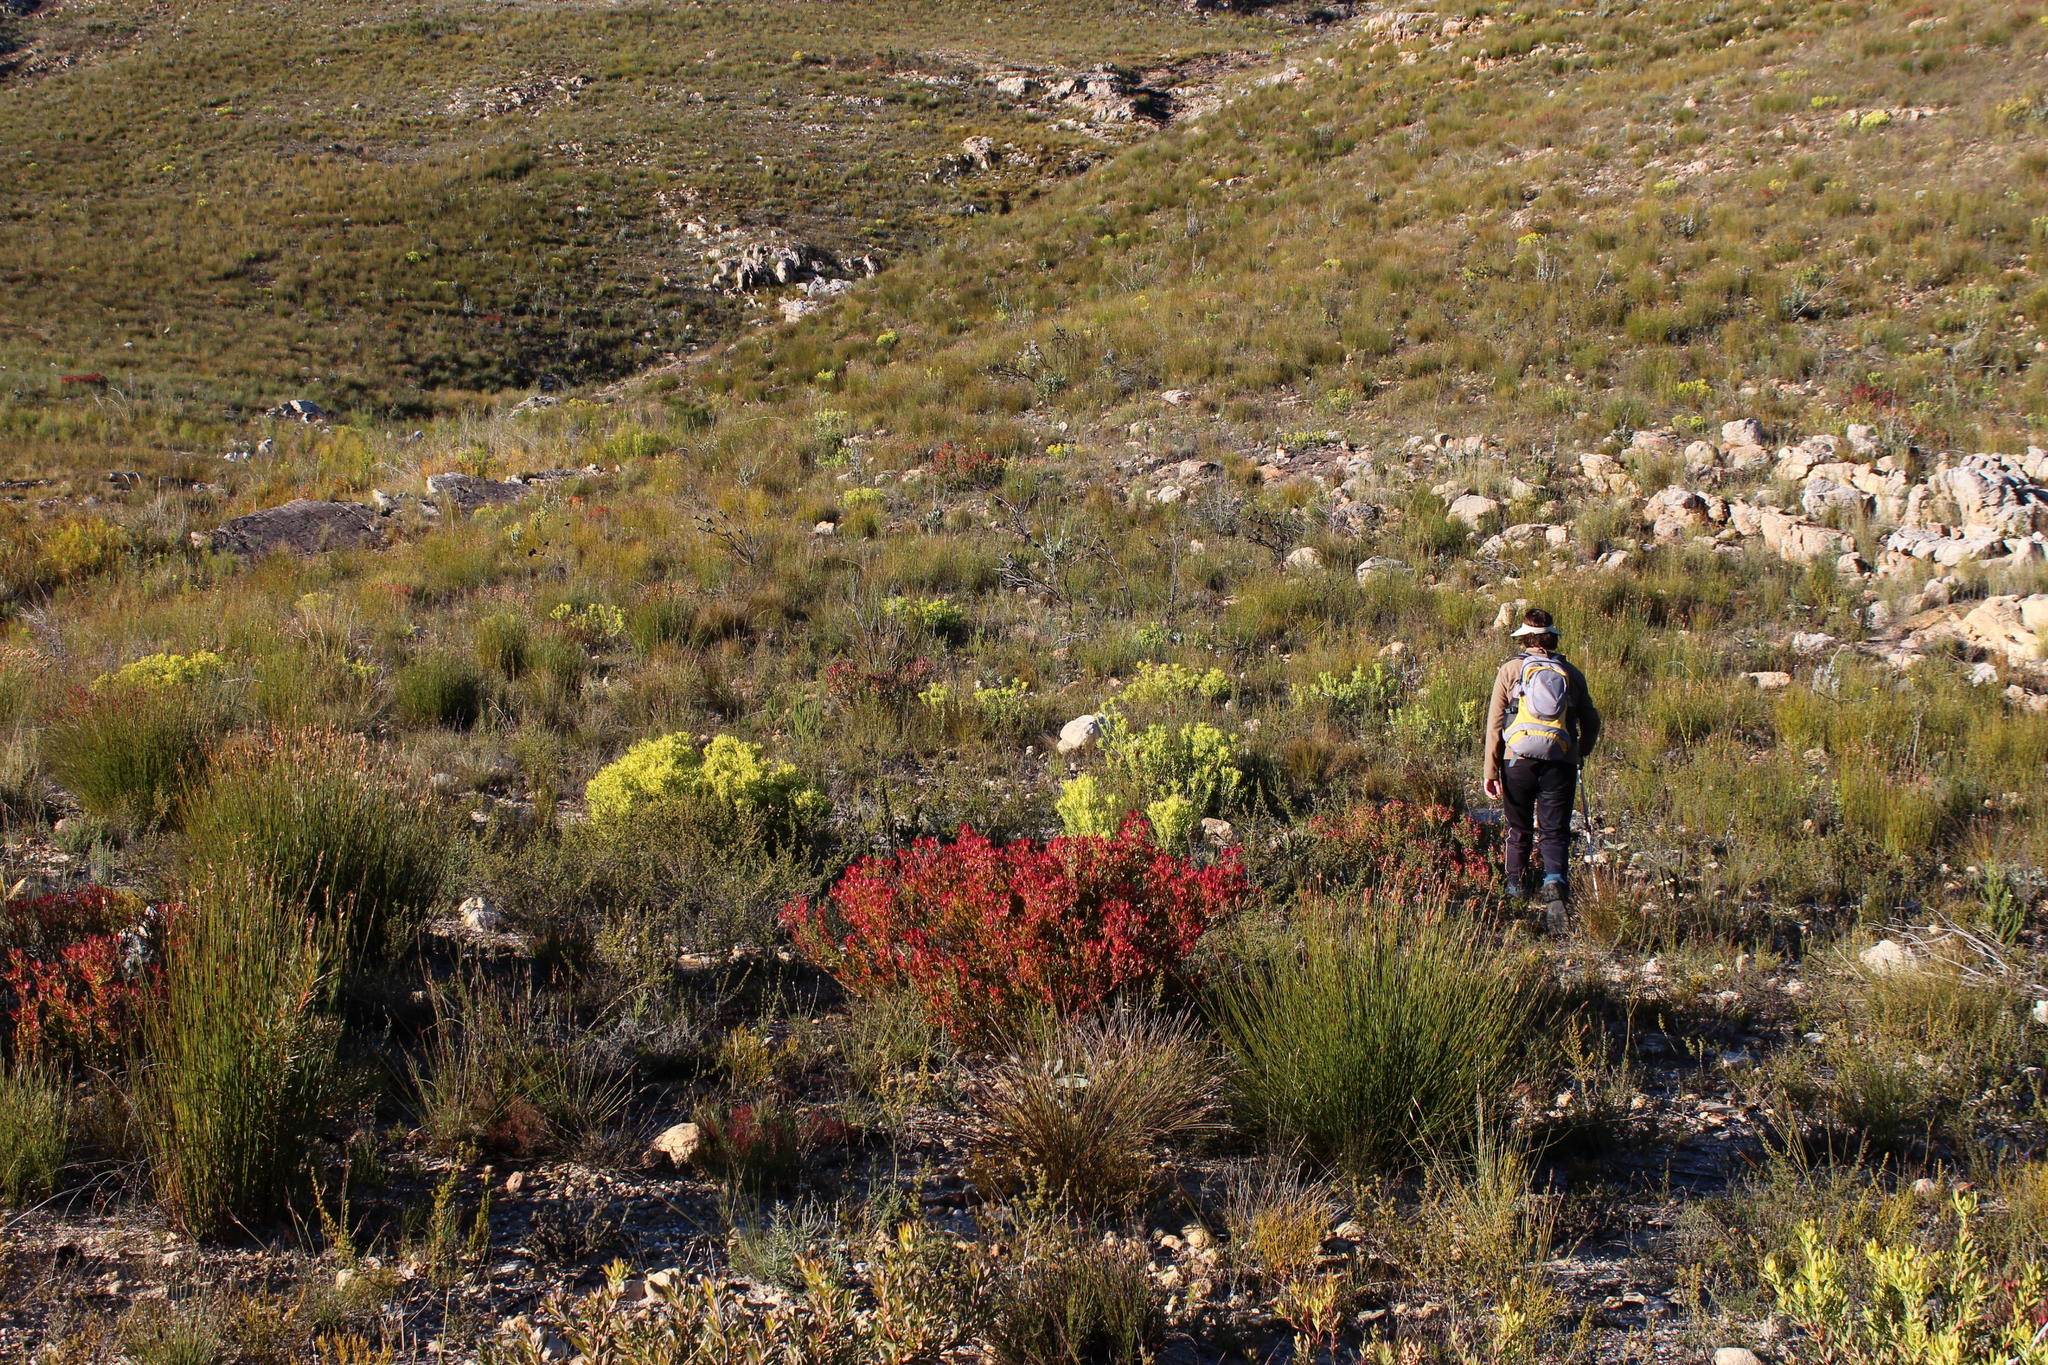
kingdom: Plantae
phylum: Tracheophyta
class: Magnoliopsida
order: Proteales
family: Proteaceae
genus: Leucadendron
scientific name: Leucadendron salignum
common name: Common sunshine conebush
